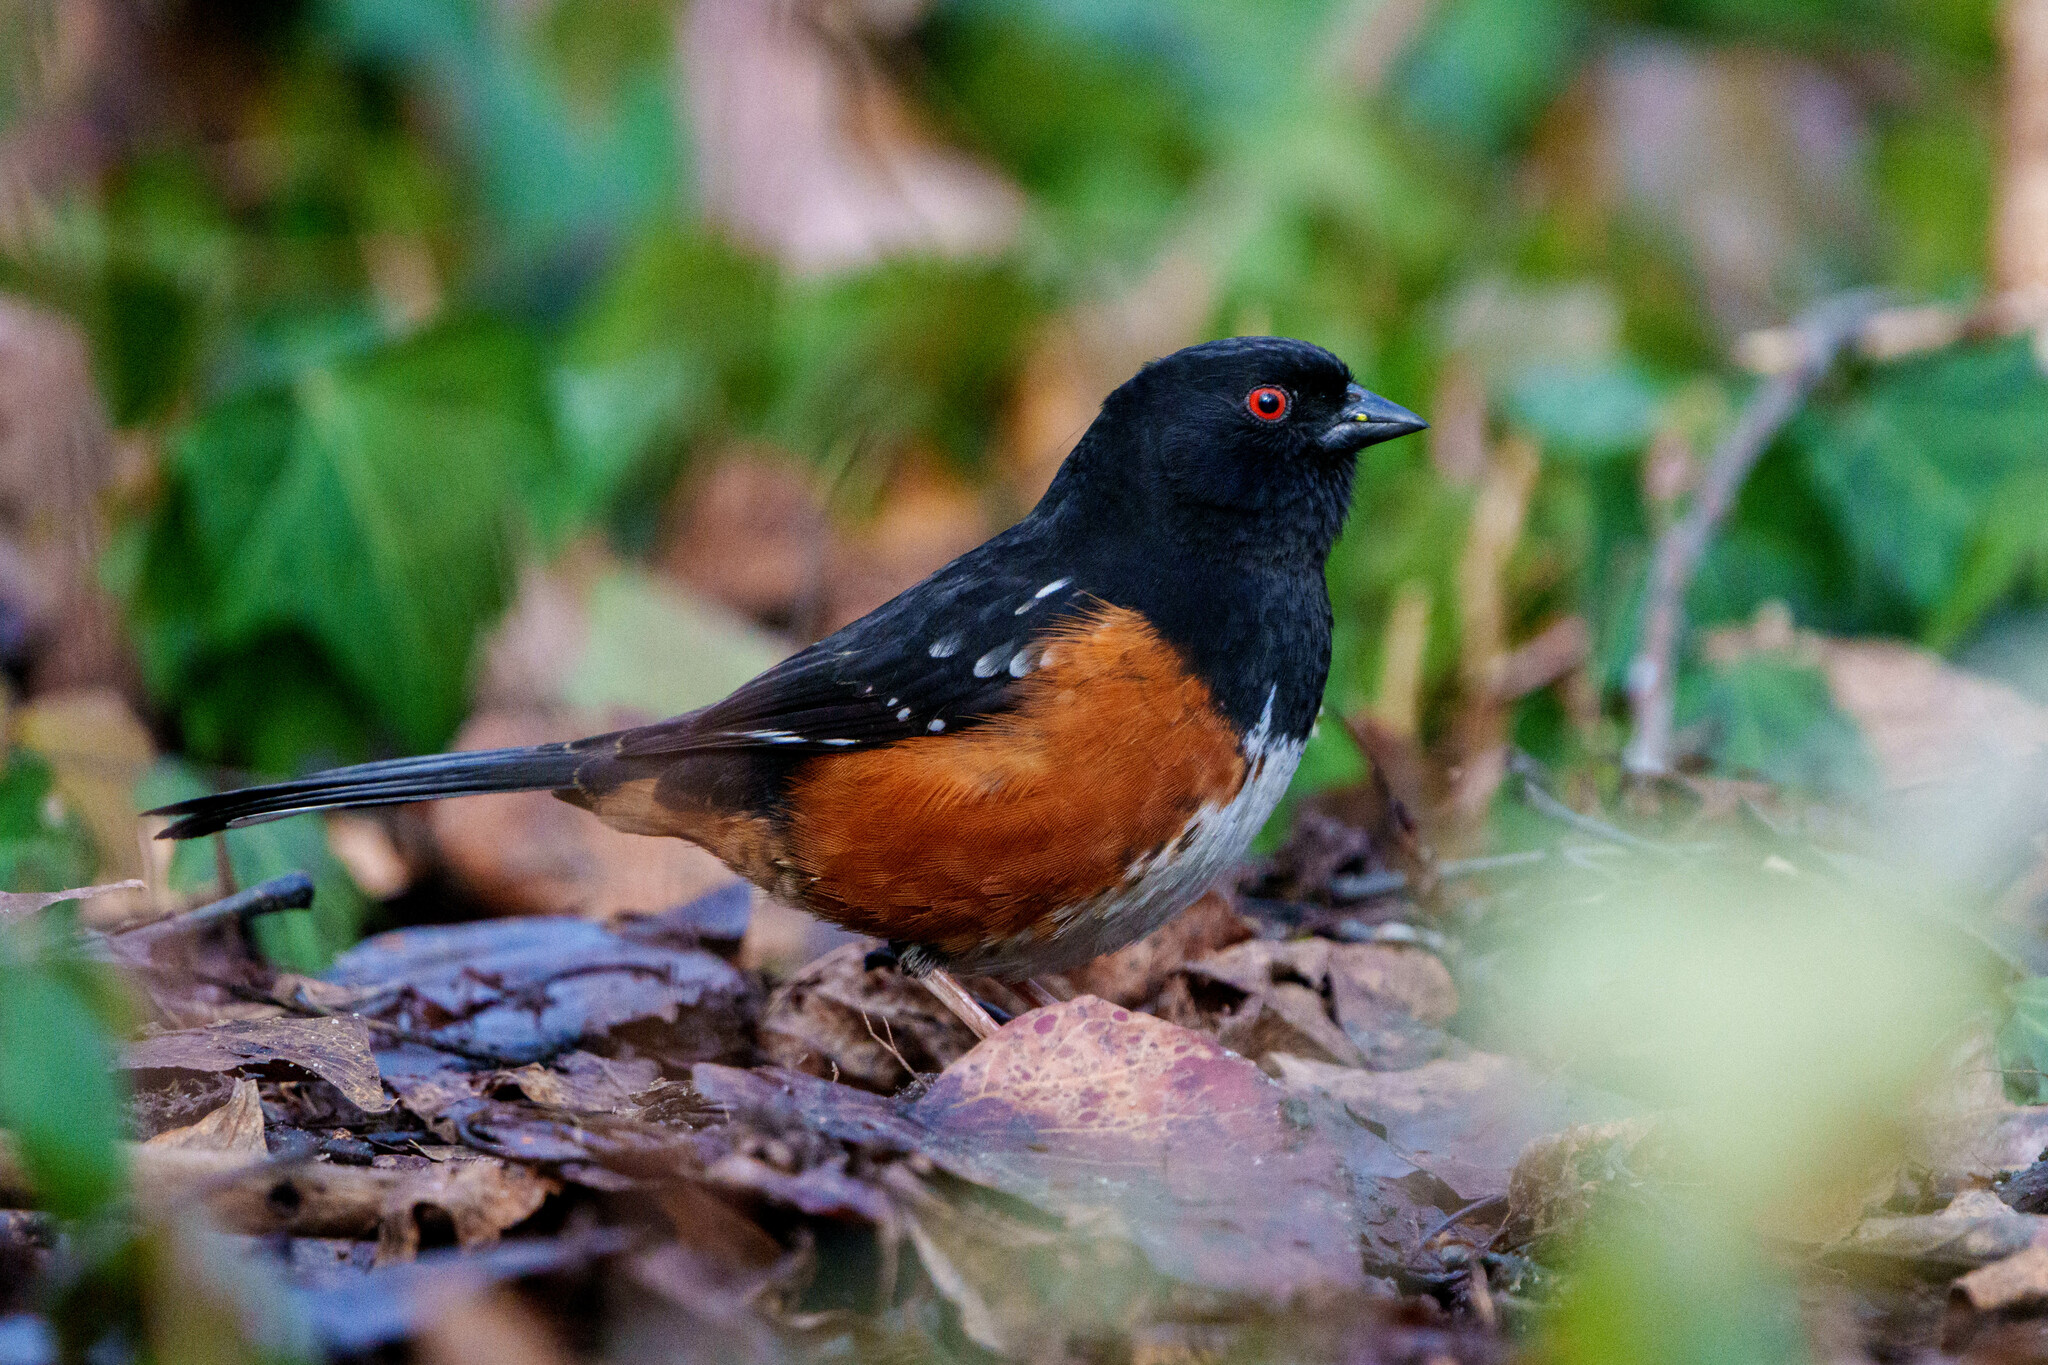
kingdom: Animalia
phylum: Chordata
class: Aves
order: Passeriformes
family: Passerellidae
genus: Pipilo
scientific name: Pipilo maculatus
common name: Spotted towhee
